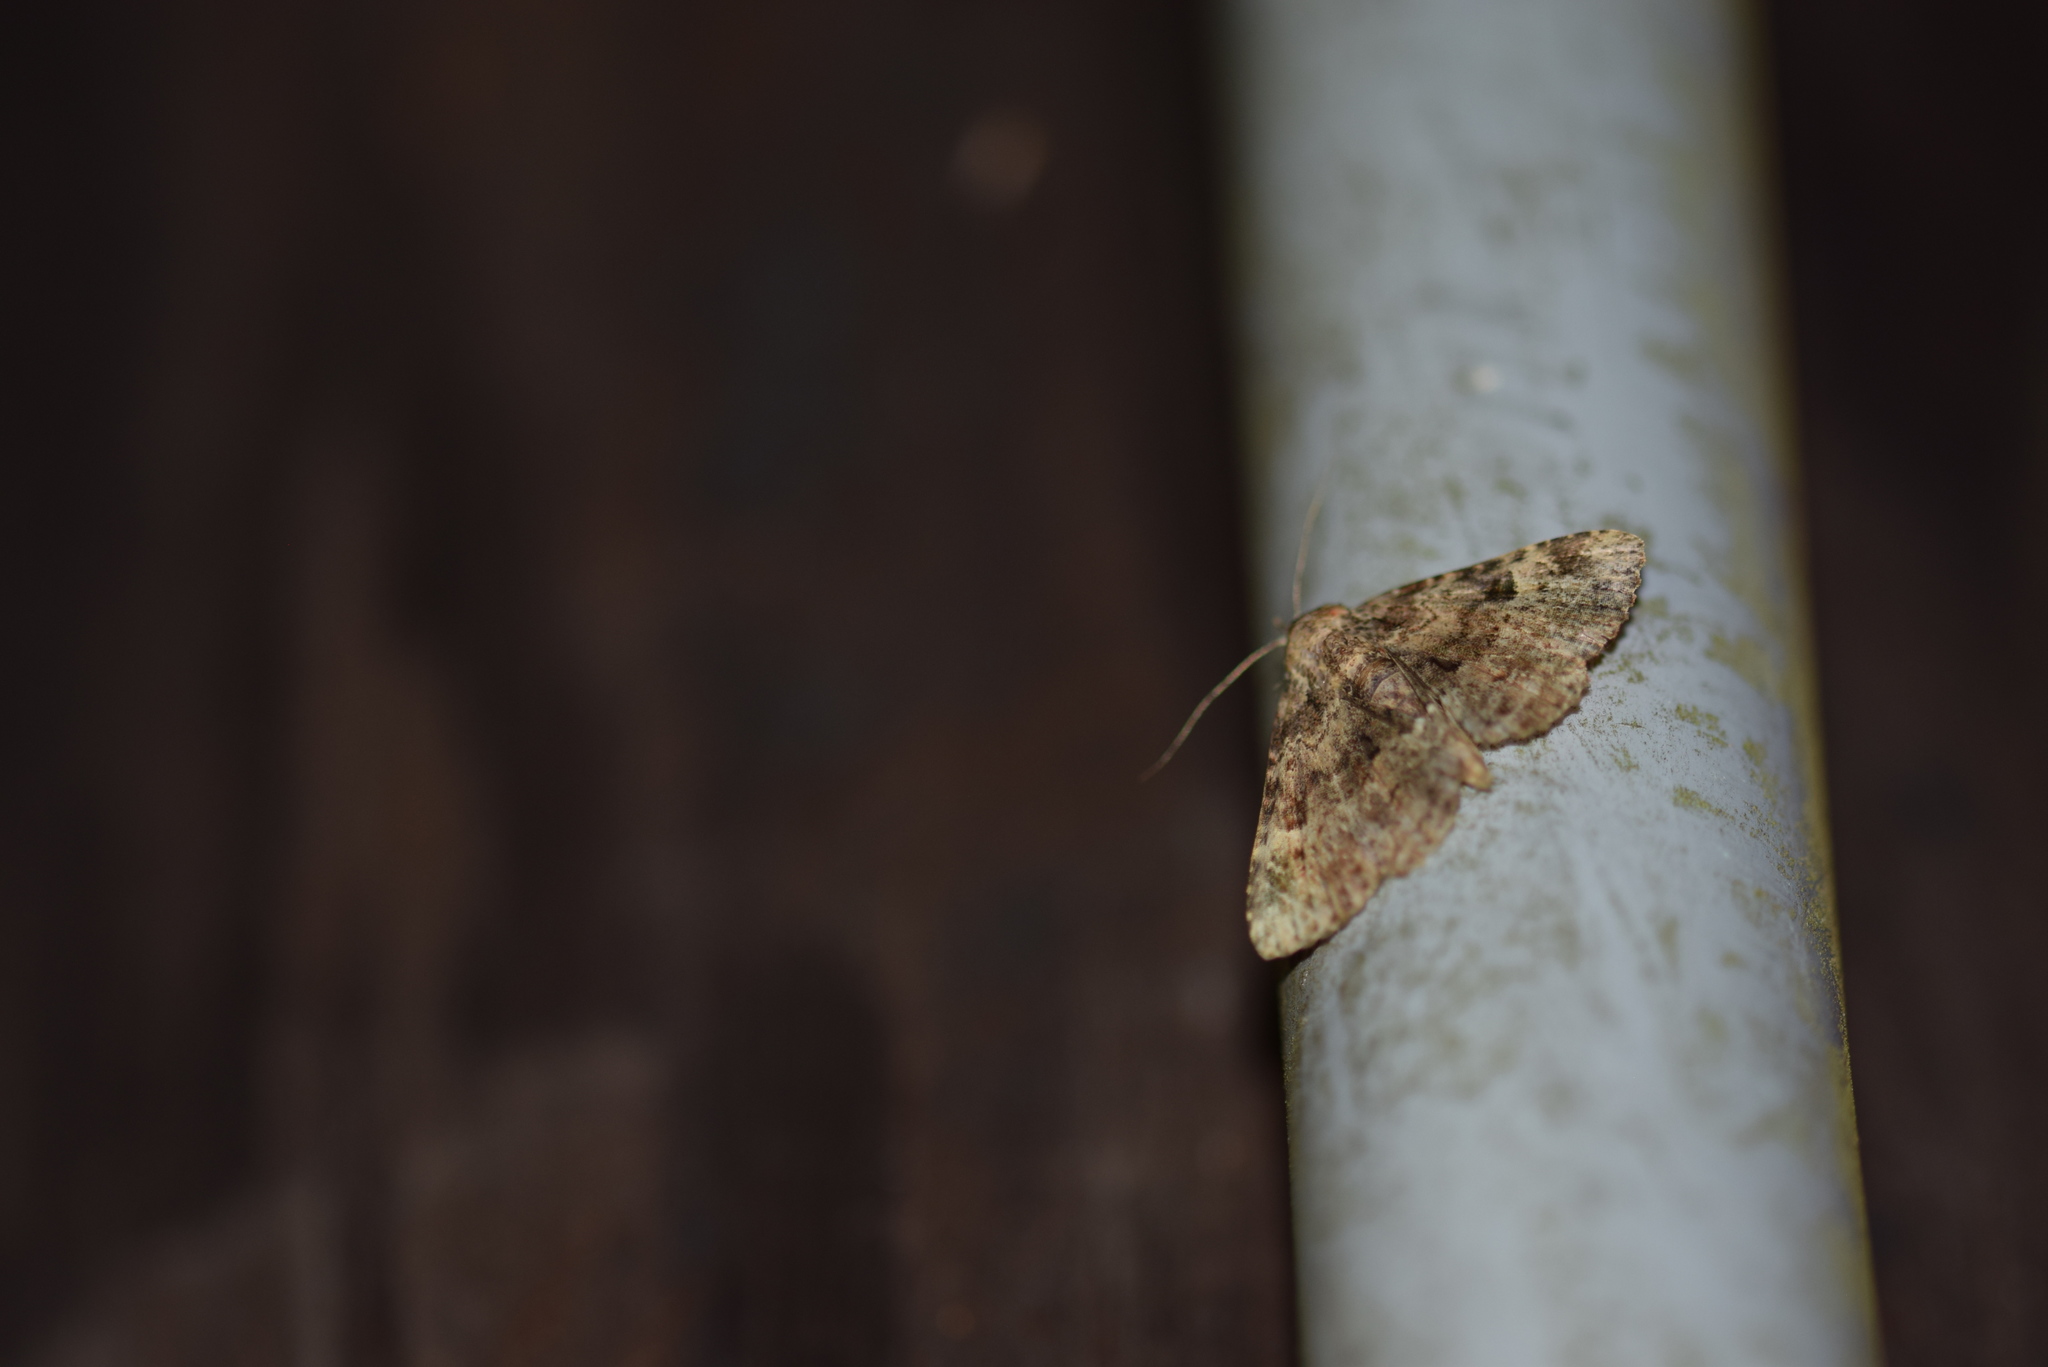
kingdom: Animalia
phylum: Arthropoda
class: Insecta
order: Lepidoptera
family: Erebidae
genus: Metalectra
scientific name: Metalectra discalis
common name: Common fungus moth
